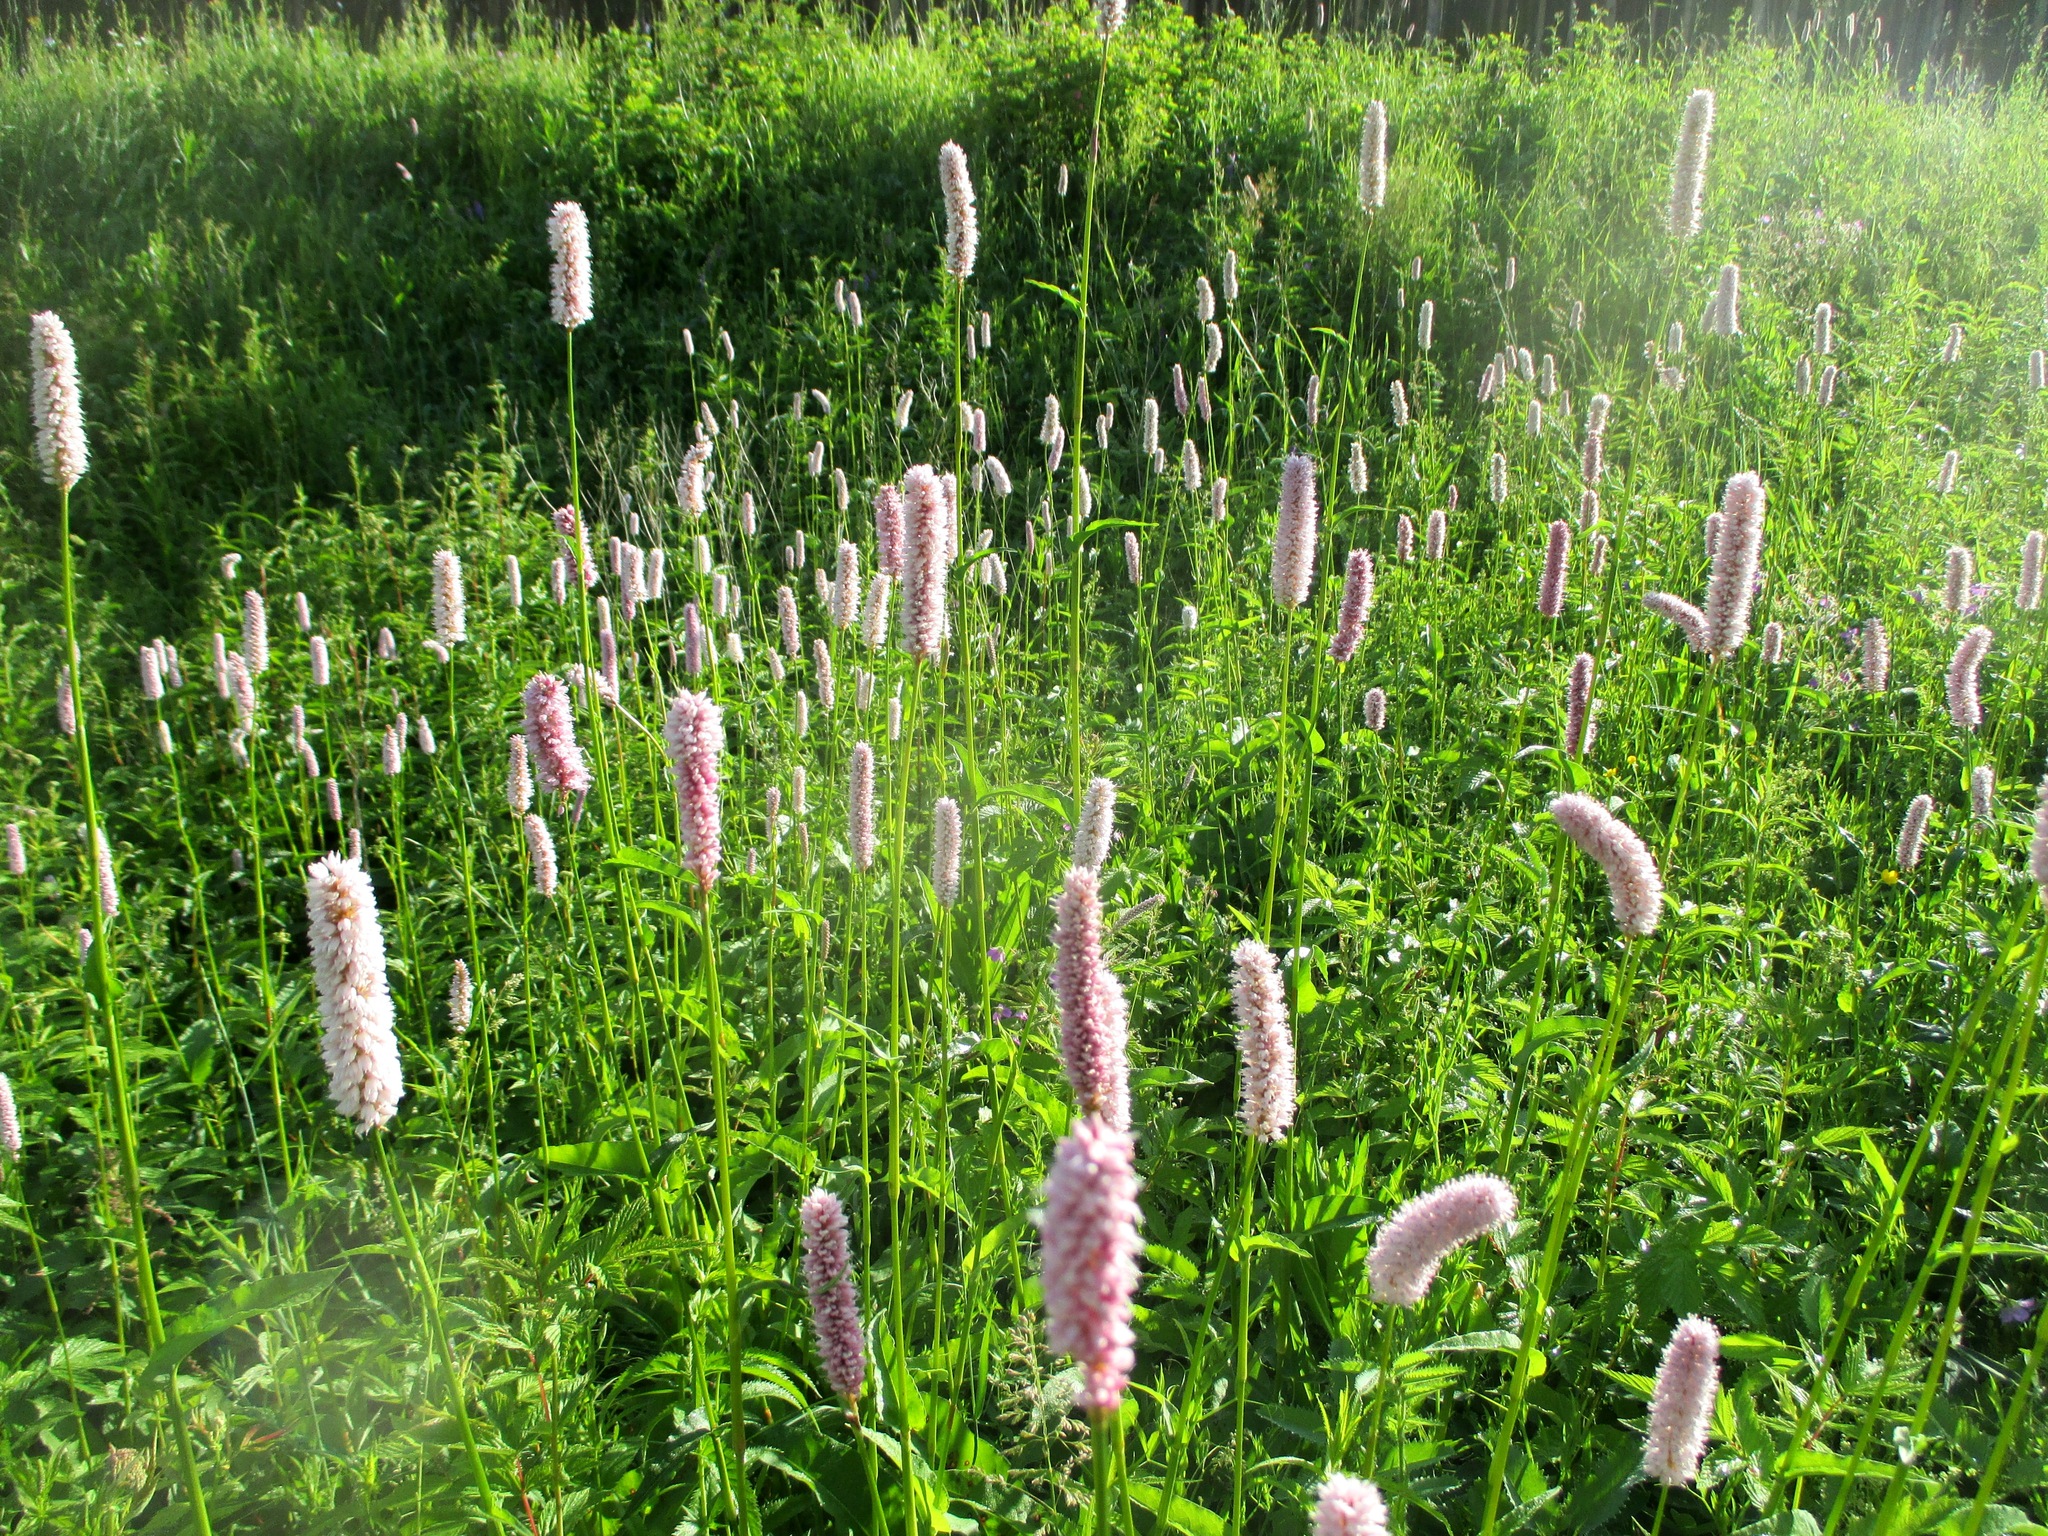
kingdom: Plantae
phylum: Tracheophyta
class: Magnoliopsida
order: Caryophyllales
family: Polygonaceae
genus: Bistorta
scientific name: Bistorta officinalis
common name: Common bistort
